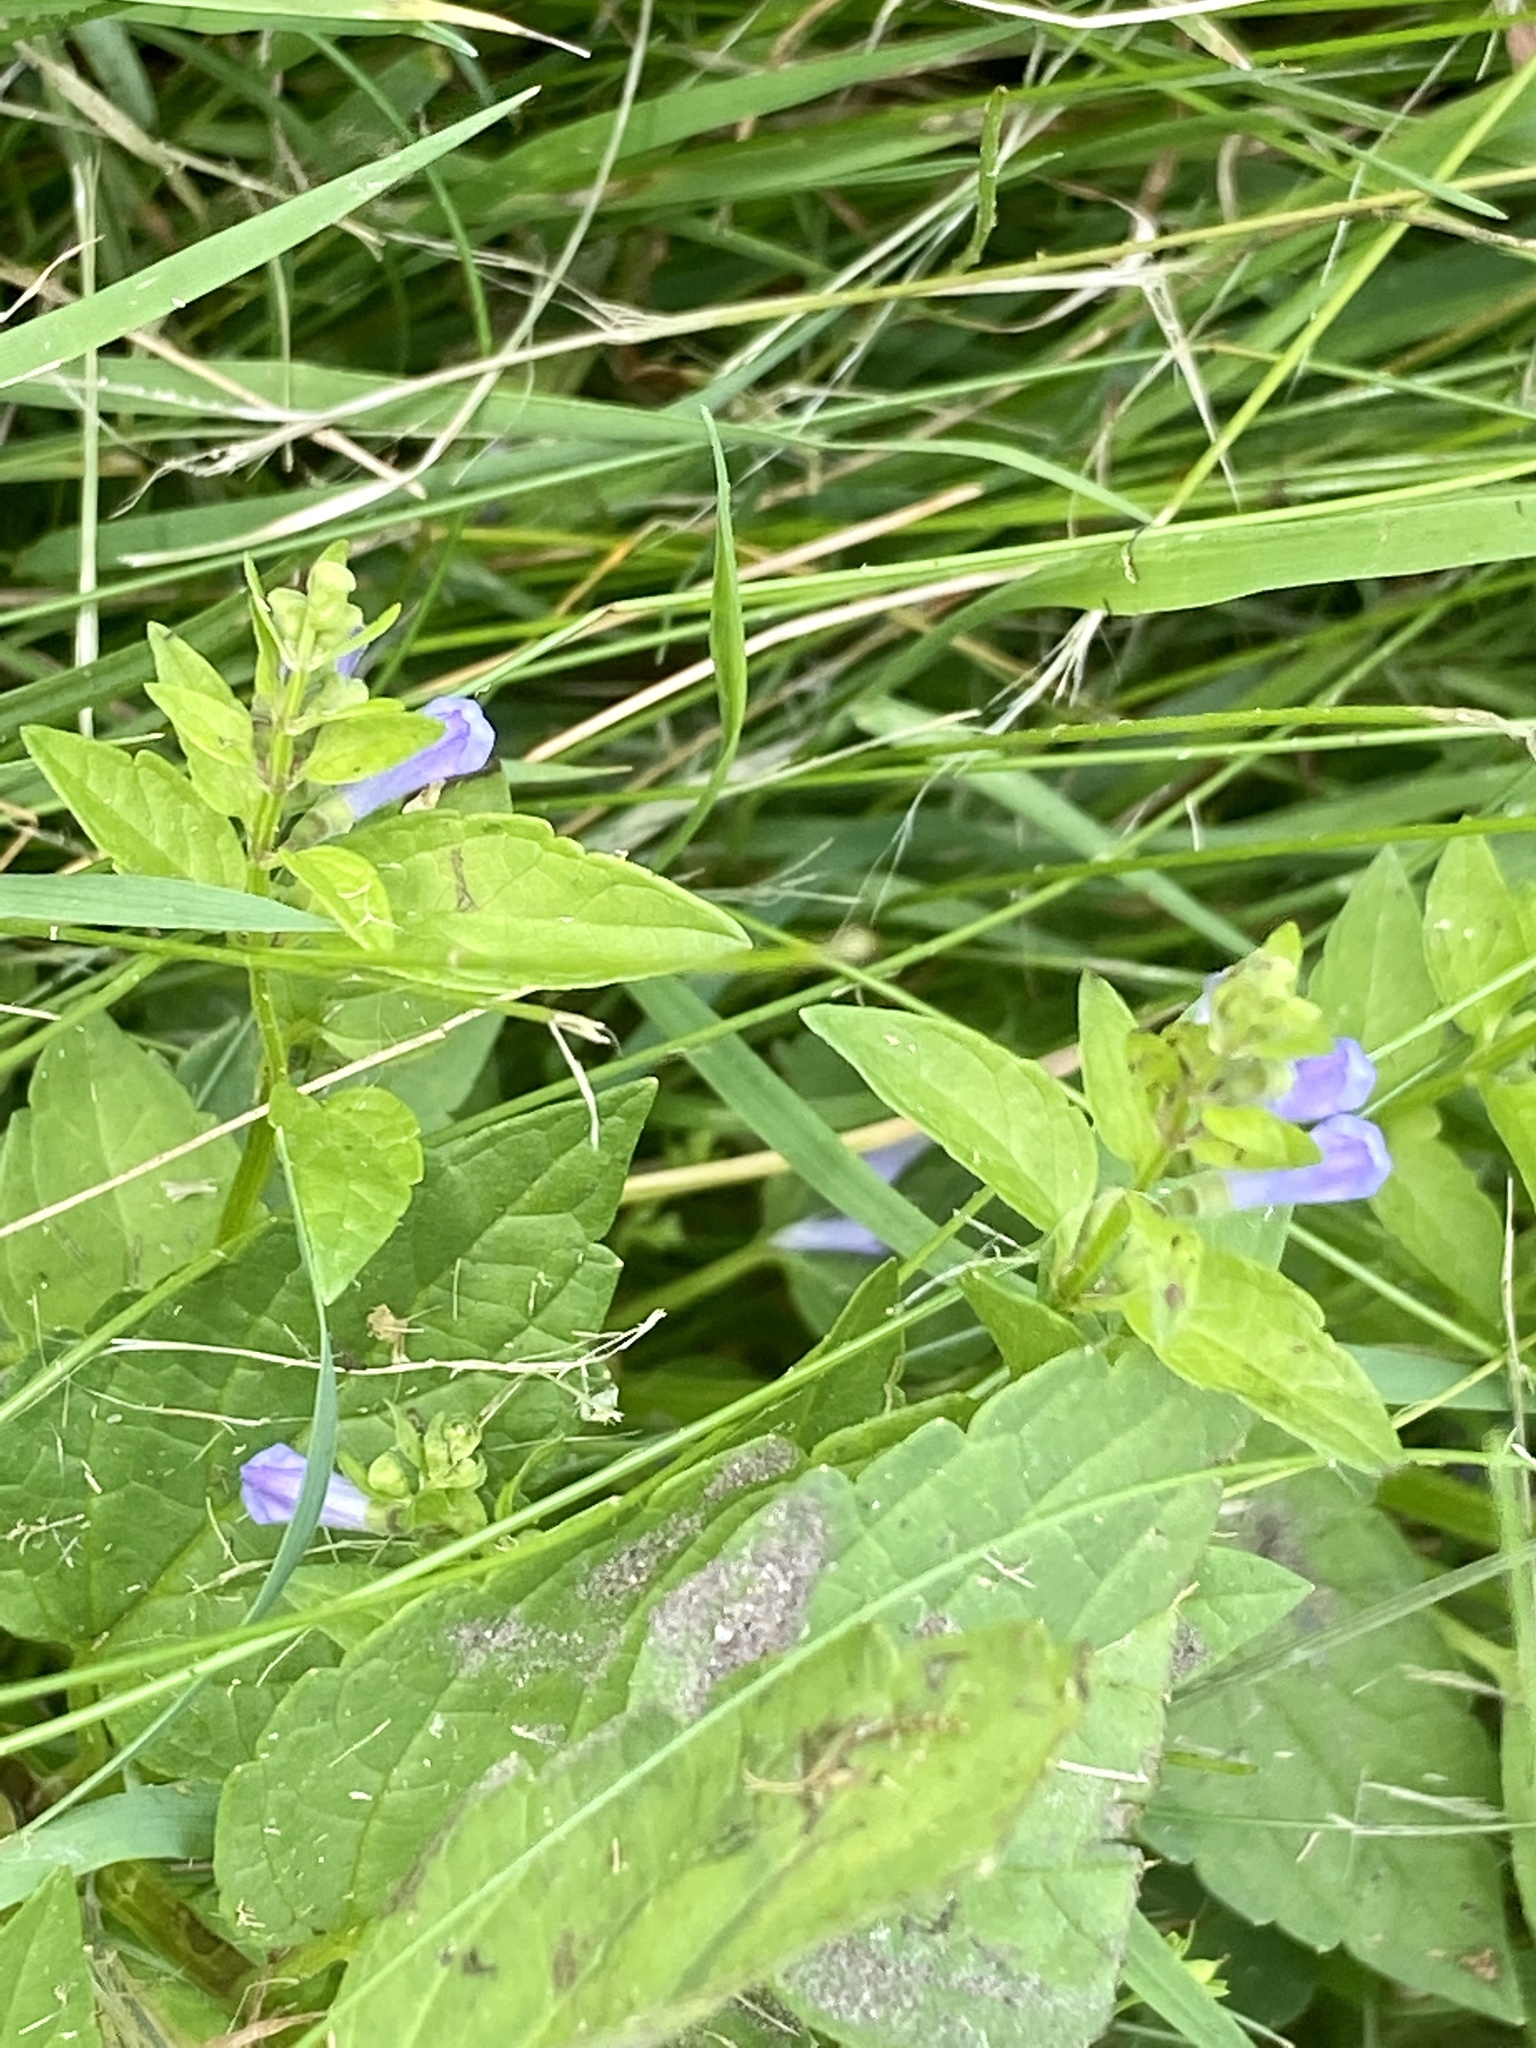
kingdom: Plantae
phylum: Tracheophyta
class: Magnoliopsida
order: Lamiales
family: Lamiaceae
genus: Scutellaria
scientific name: Scutellaria lateriflora
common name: Blue skullcap
